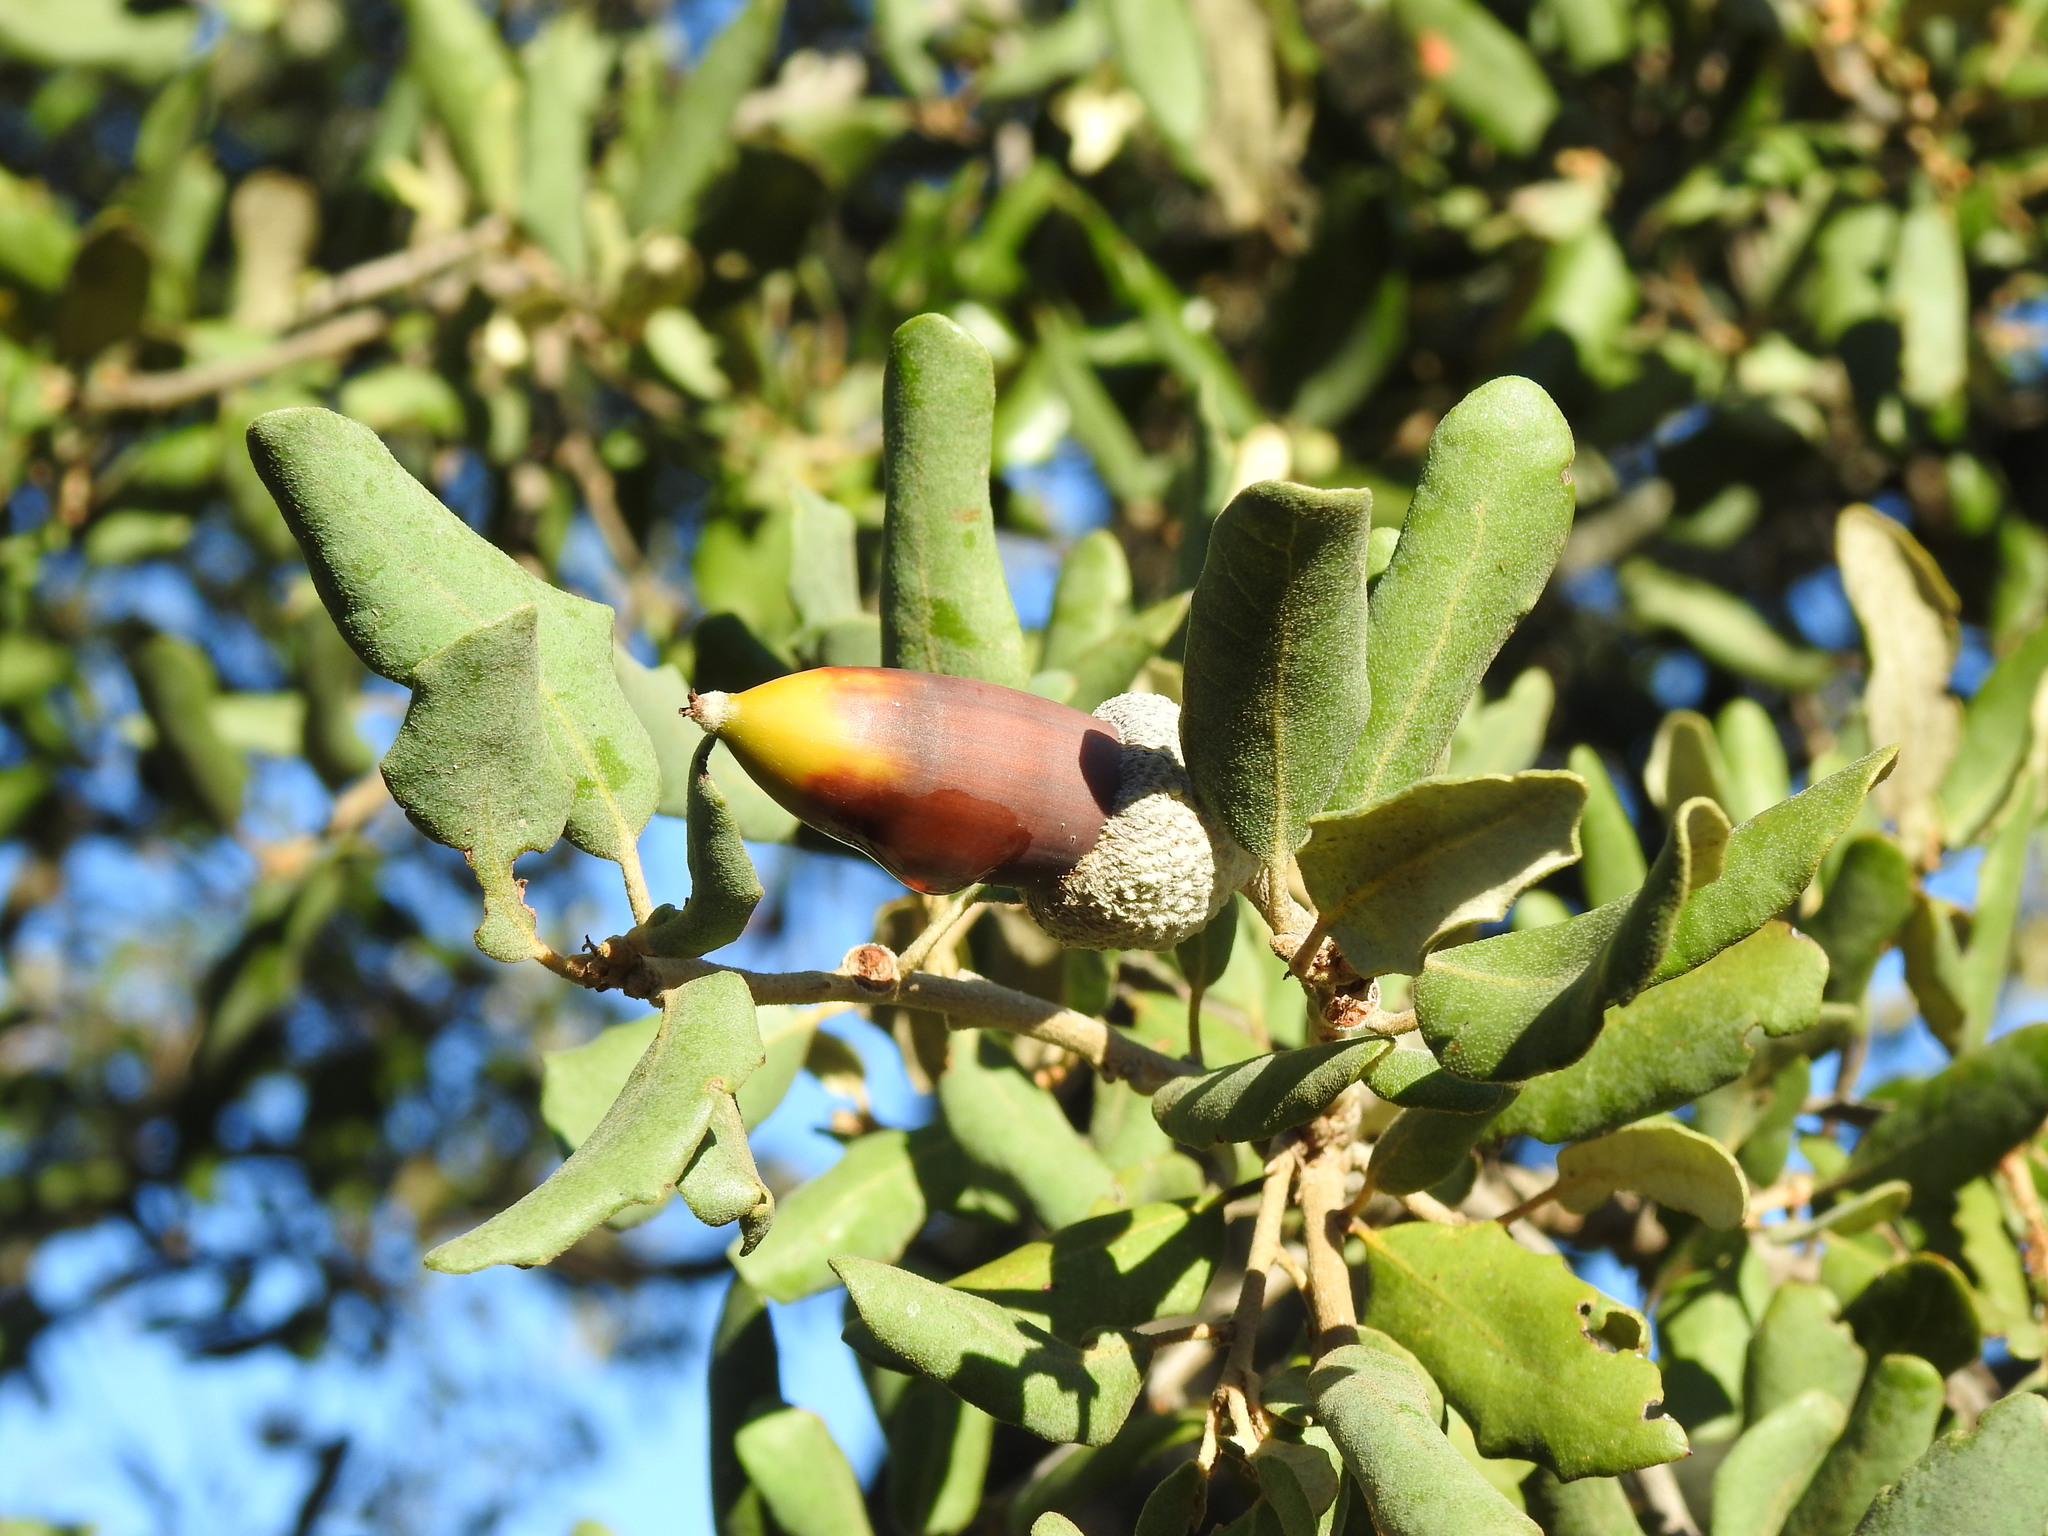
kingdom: Plantae
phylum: Tracheophyta
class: Magnoliopsida
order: Fagales
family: Fagaceae
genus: Quercus
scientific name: Quercus rotundifolia
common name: Holm oak
